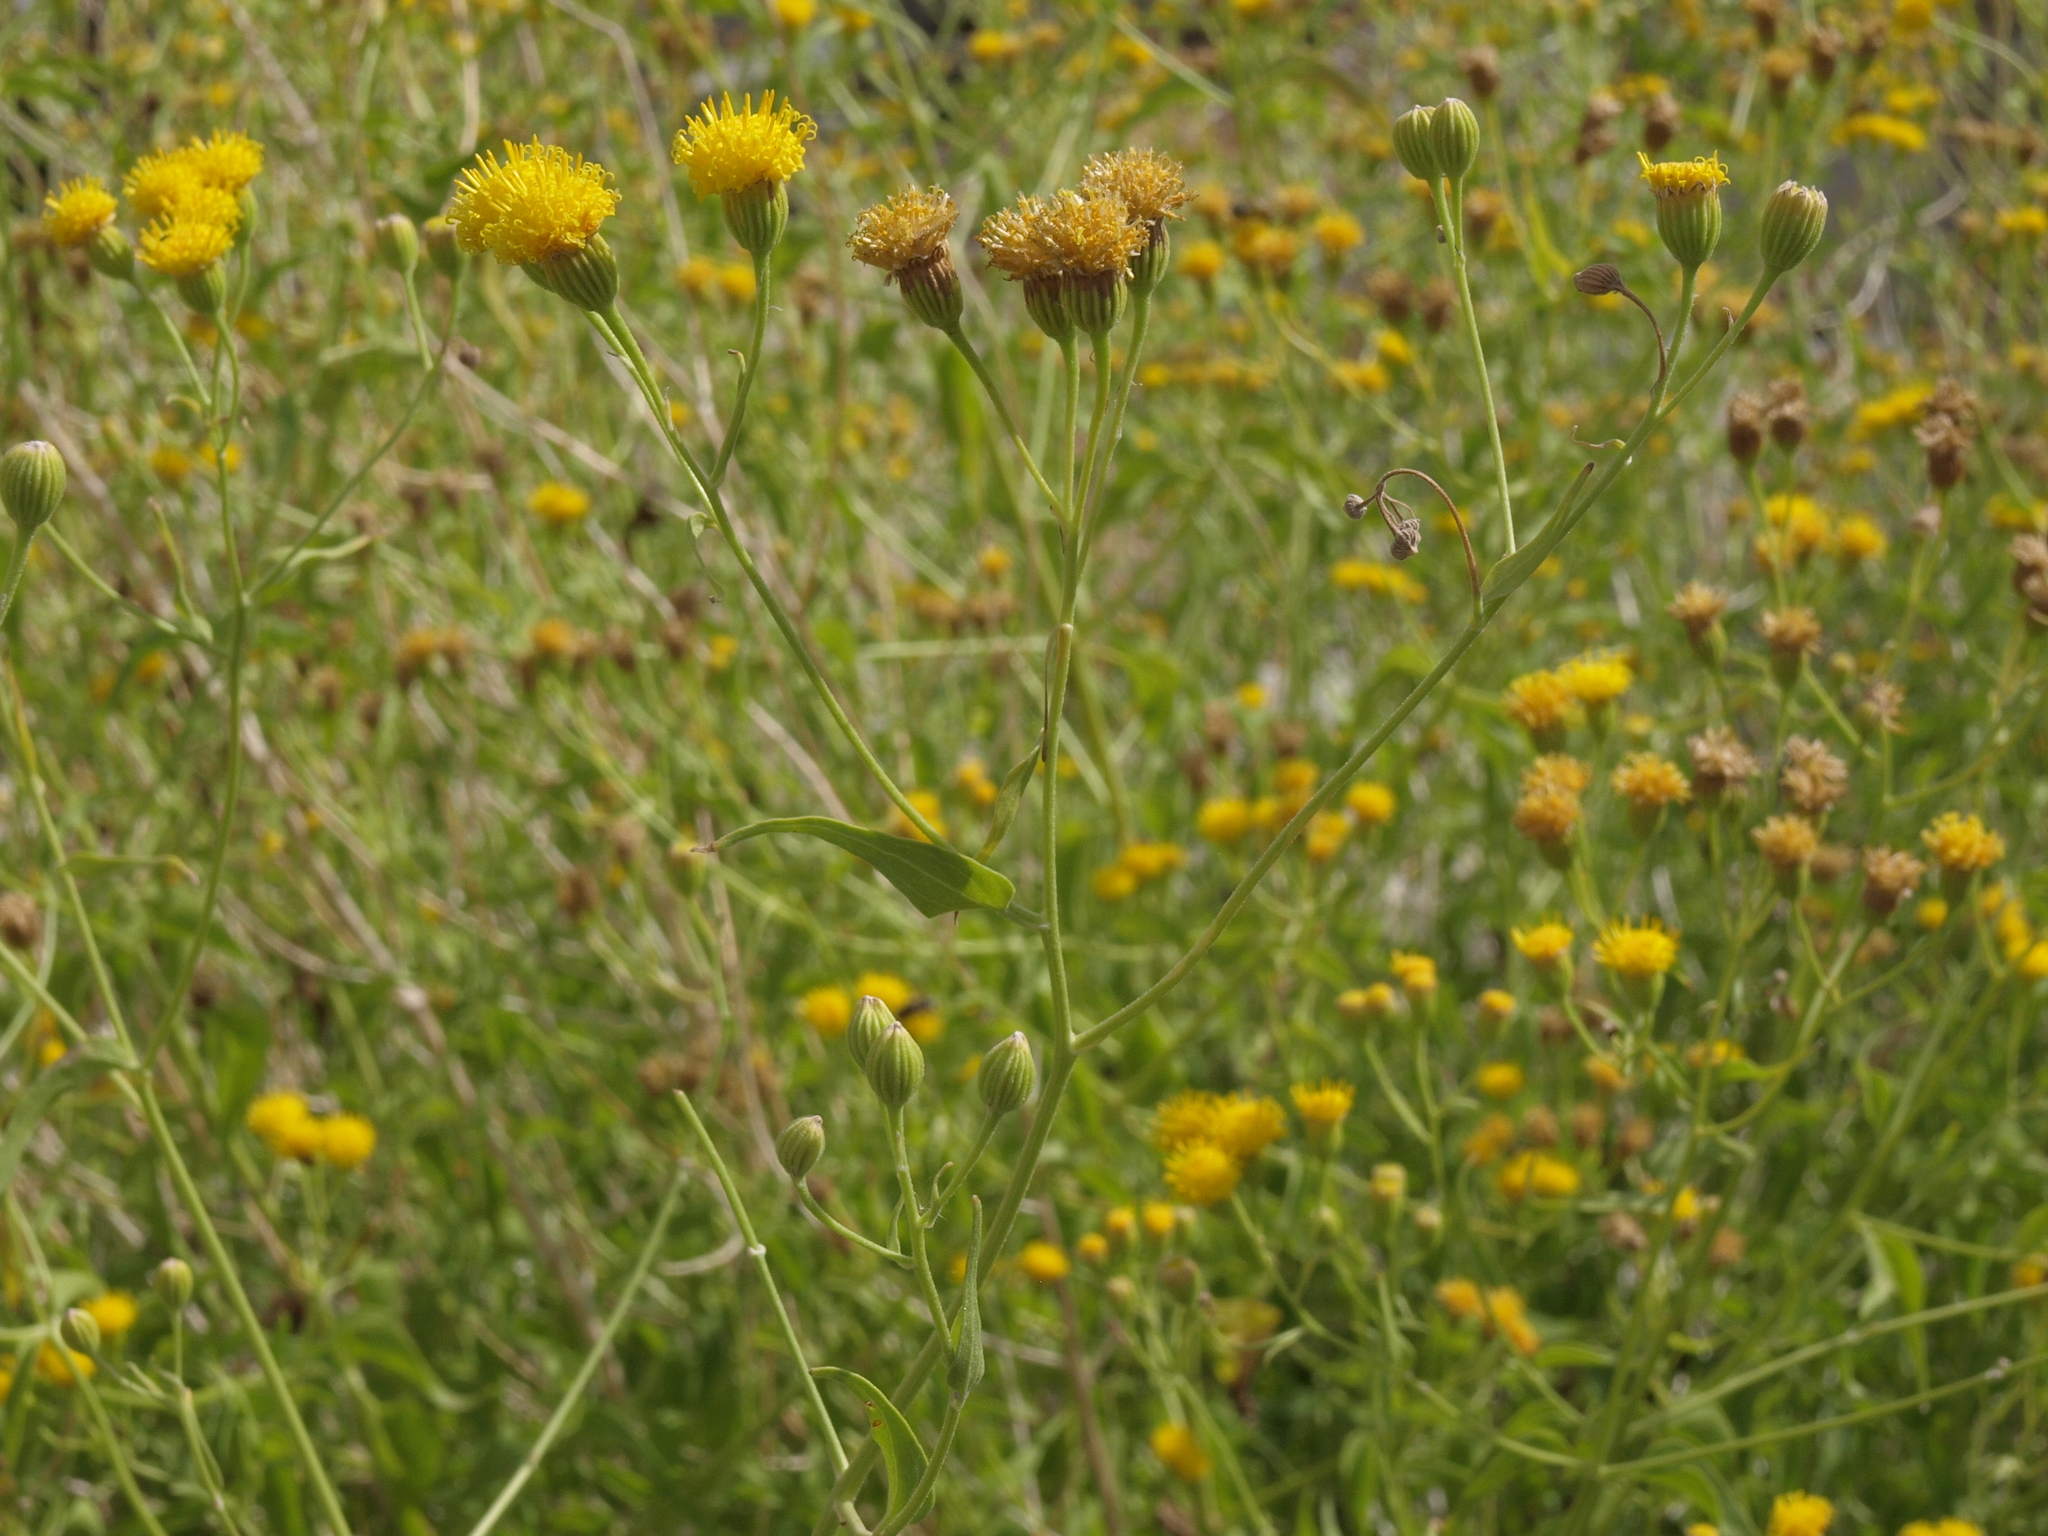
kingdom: Plantae
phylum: Tracheophyta
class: Magnoliopsida
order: Asterales
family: Asteraceae
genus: Pericome
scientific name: Pericome caudata
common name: Taperleaf
